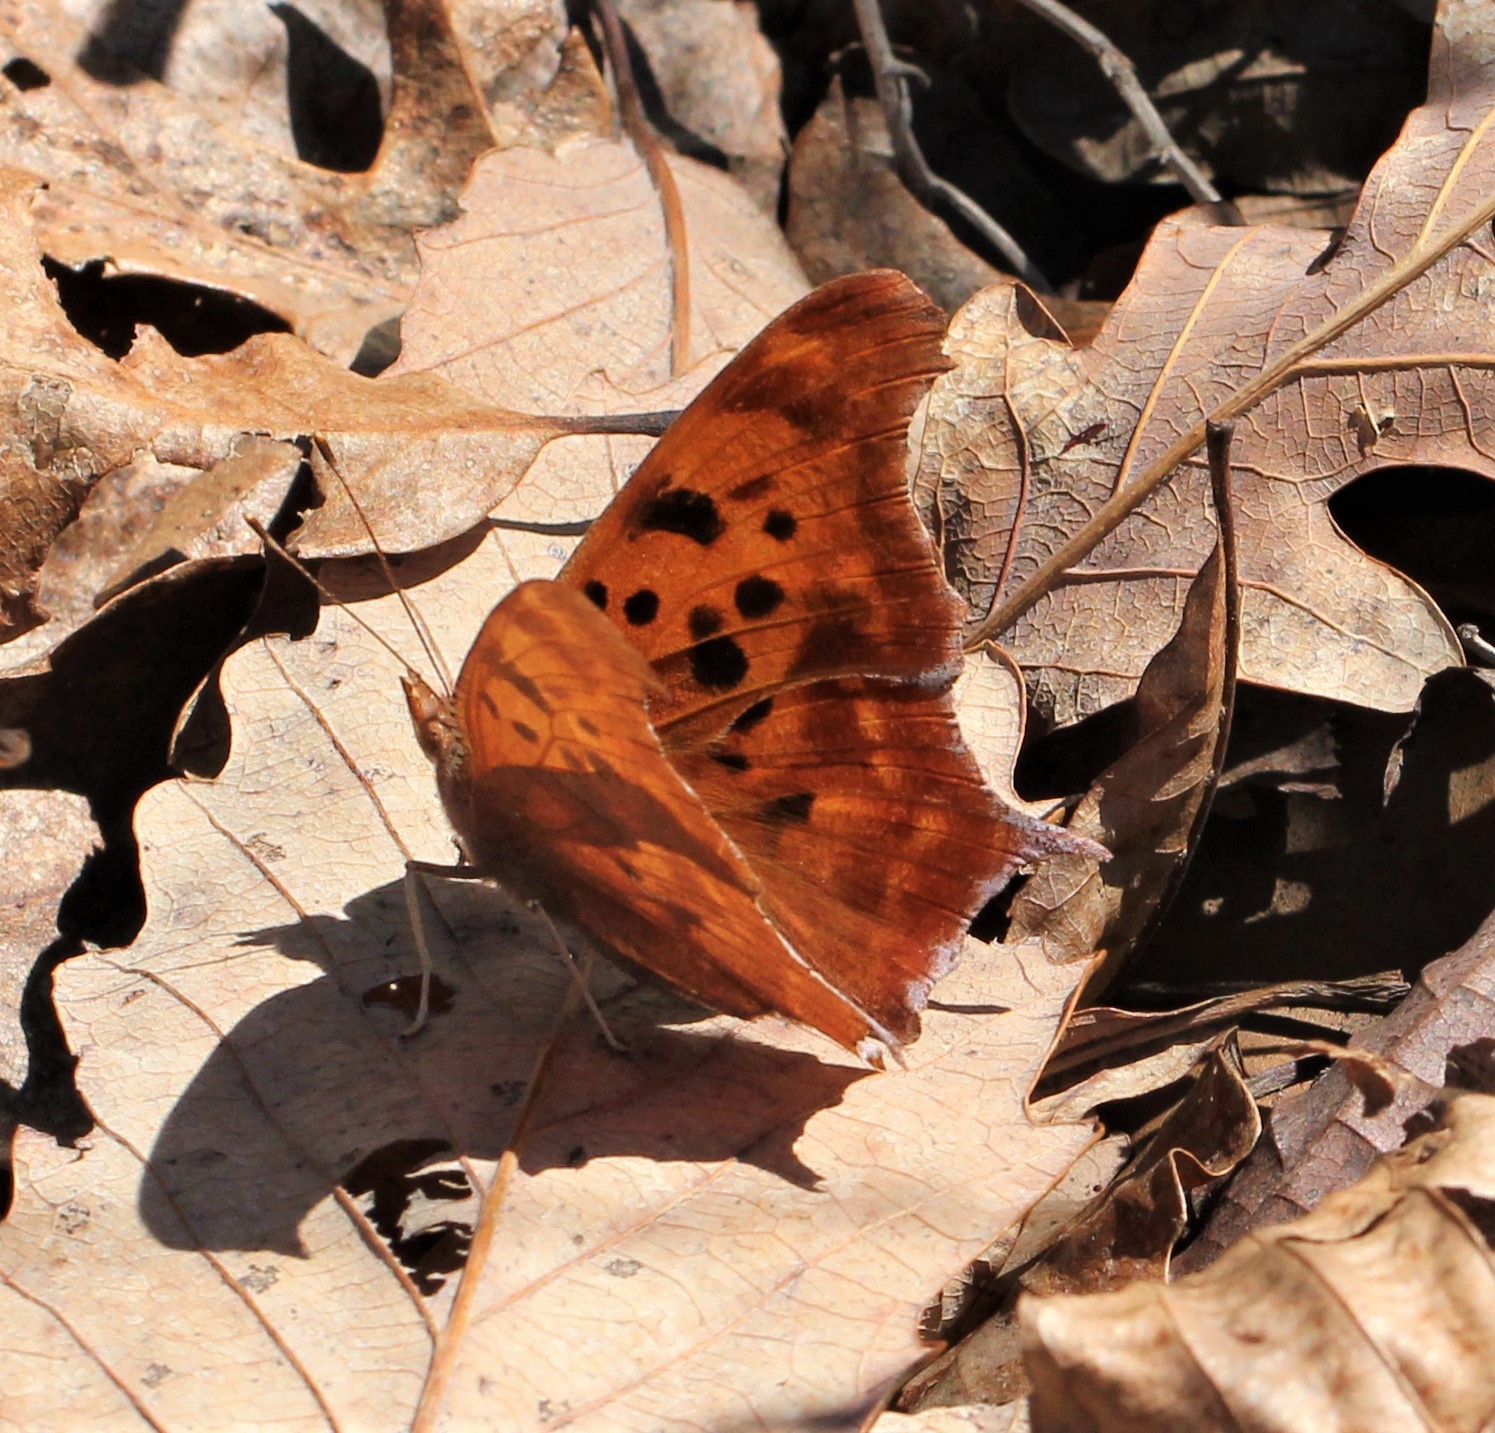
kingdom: Animalia
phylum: Arthropoda
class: Insecta
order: Lepidoptera
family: Nymphalidae
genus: Polygonia
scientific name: Polygonia interrogationis
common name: Question mark
